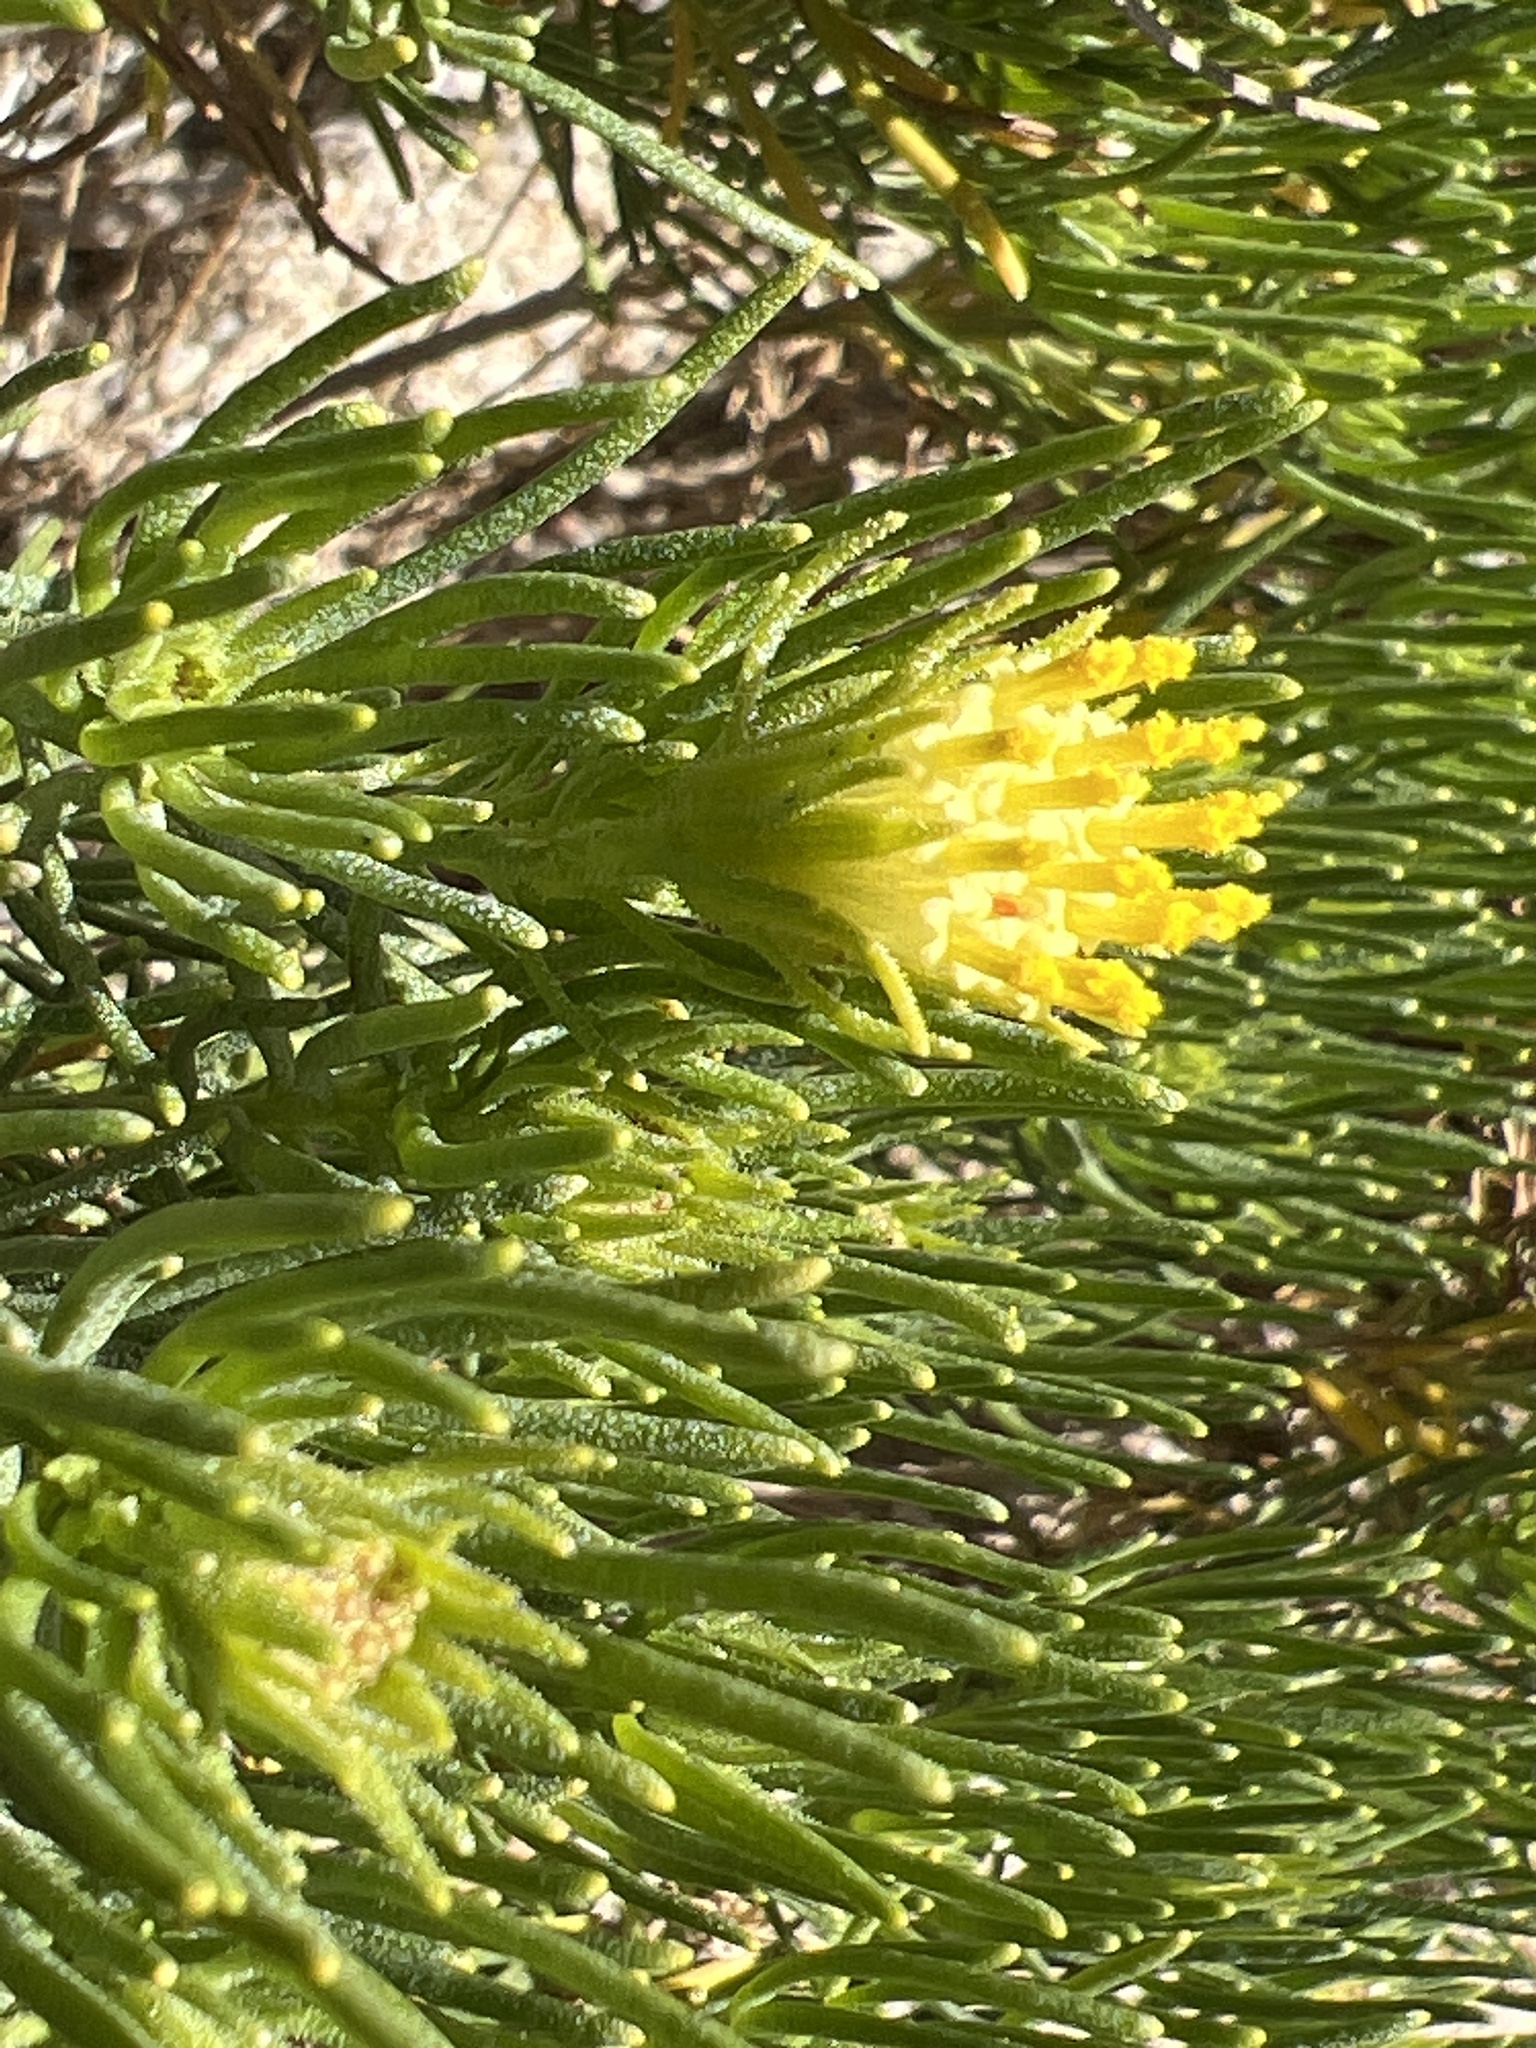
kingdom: Plantae
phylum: Tracheophyta
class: Magnoliopsida
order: Asterales
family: Asteraceae
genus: Peucephyllum
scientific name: Peucephyllum schottii
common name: Pygmy-cedar
